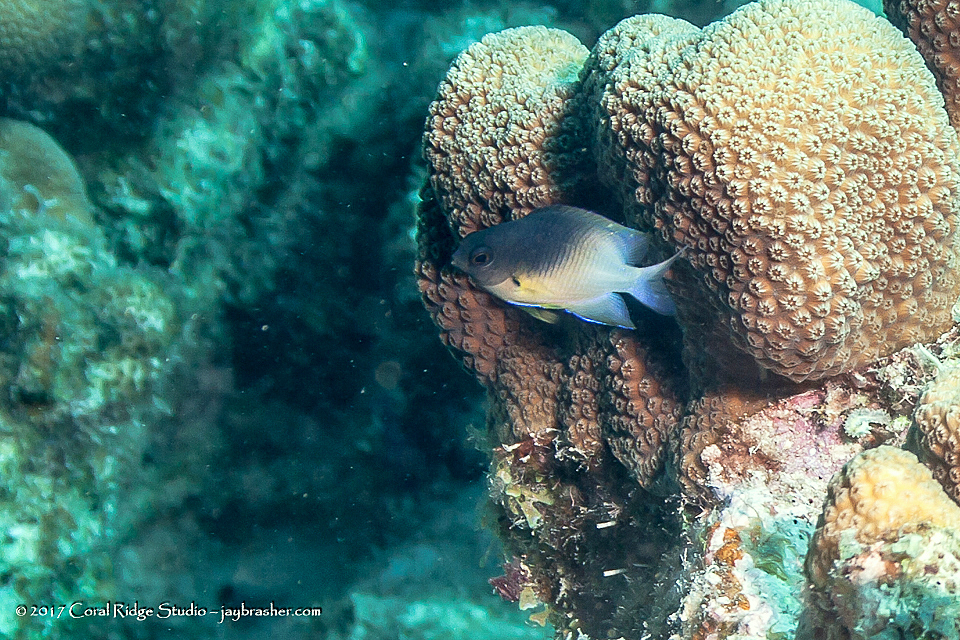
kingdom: Animalia
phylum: Chordata
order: Perciformes
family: Pomacentridae
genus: Stegastes
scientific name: Stegastes partitus
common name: Bicolor damselfish
